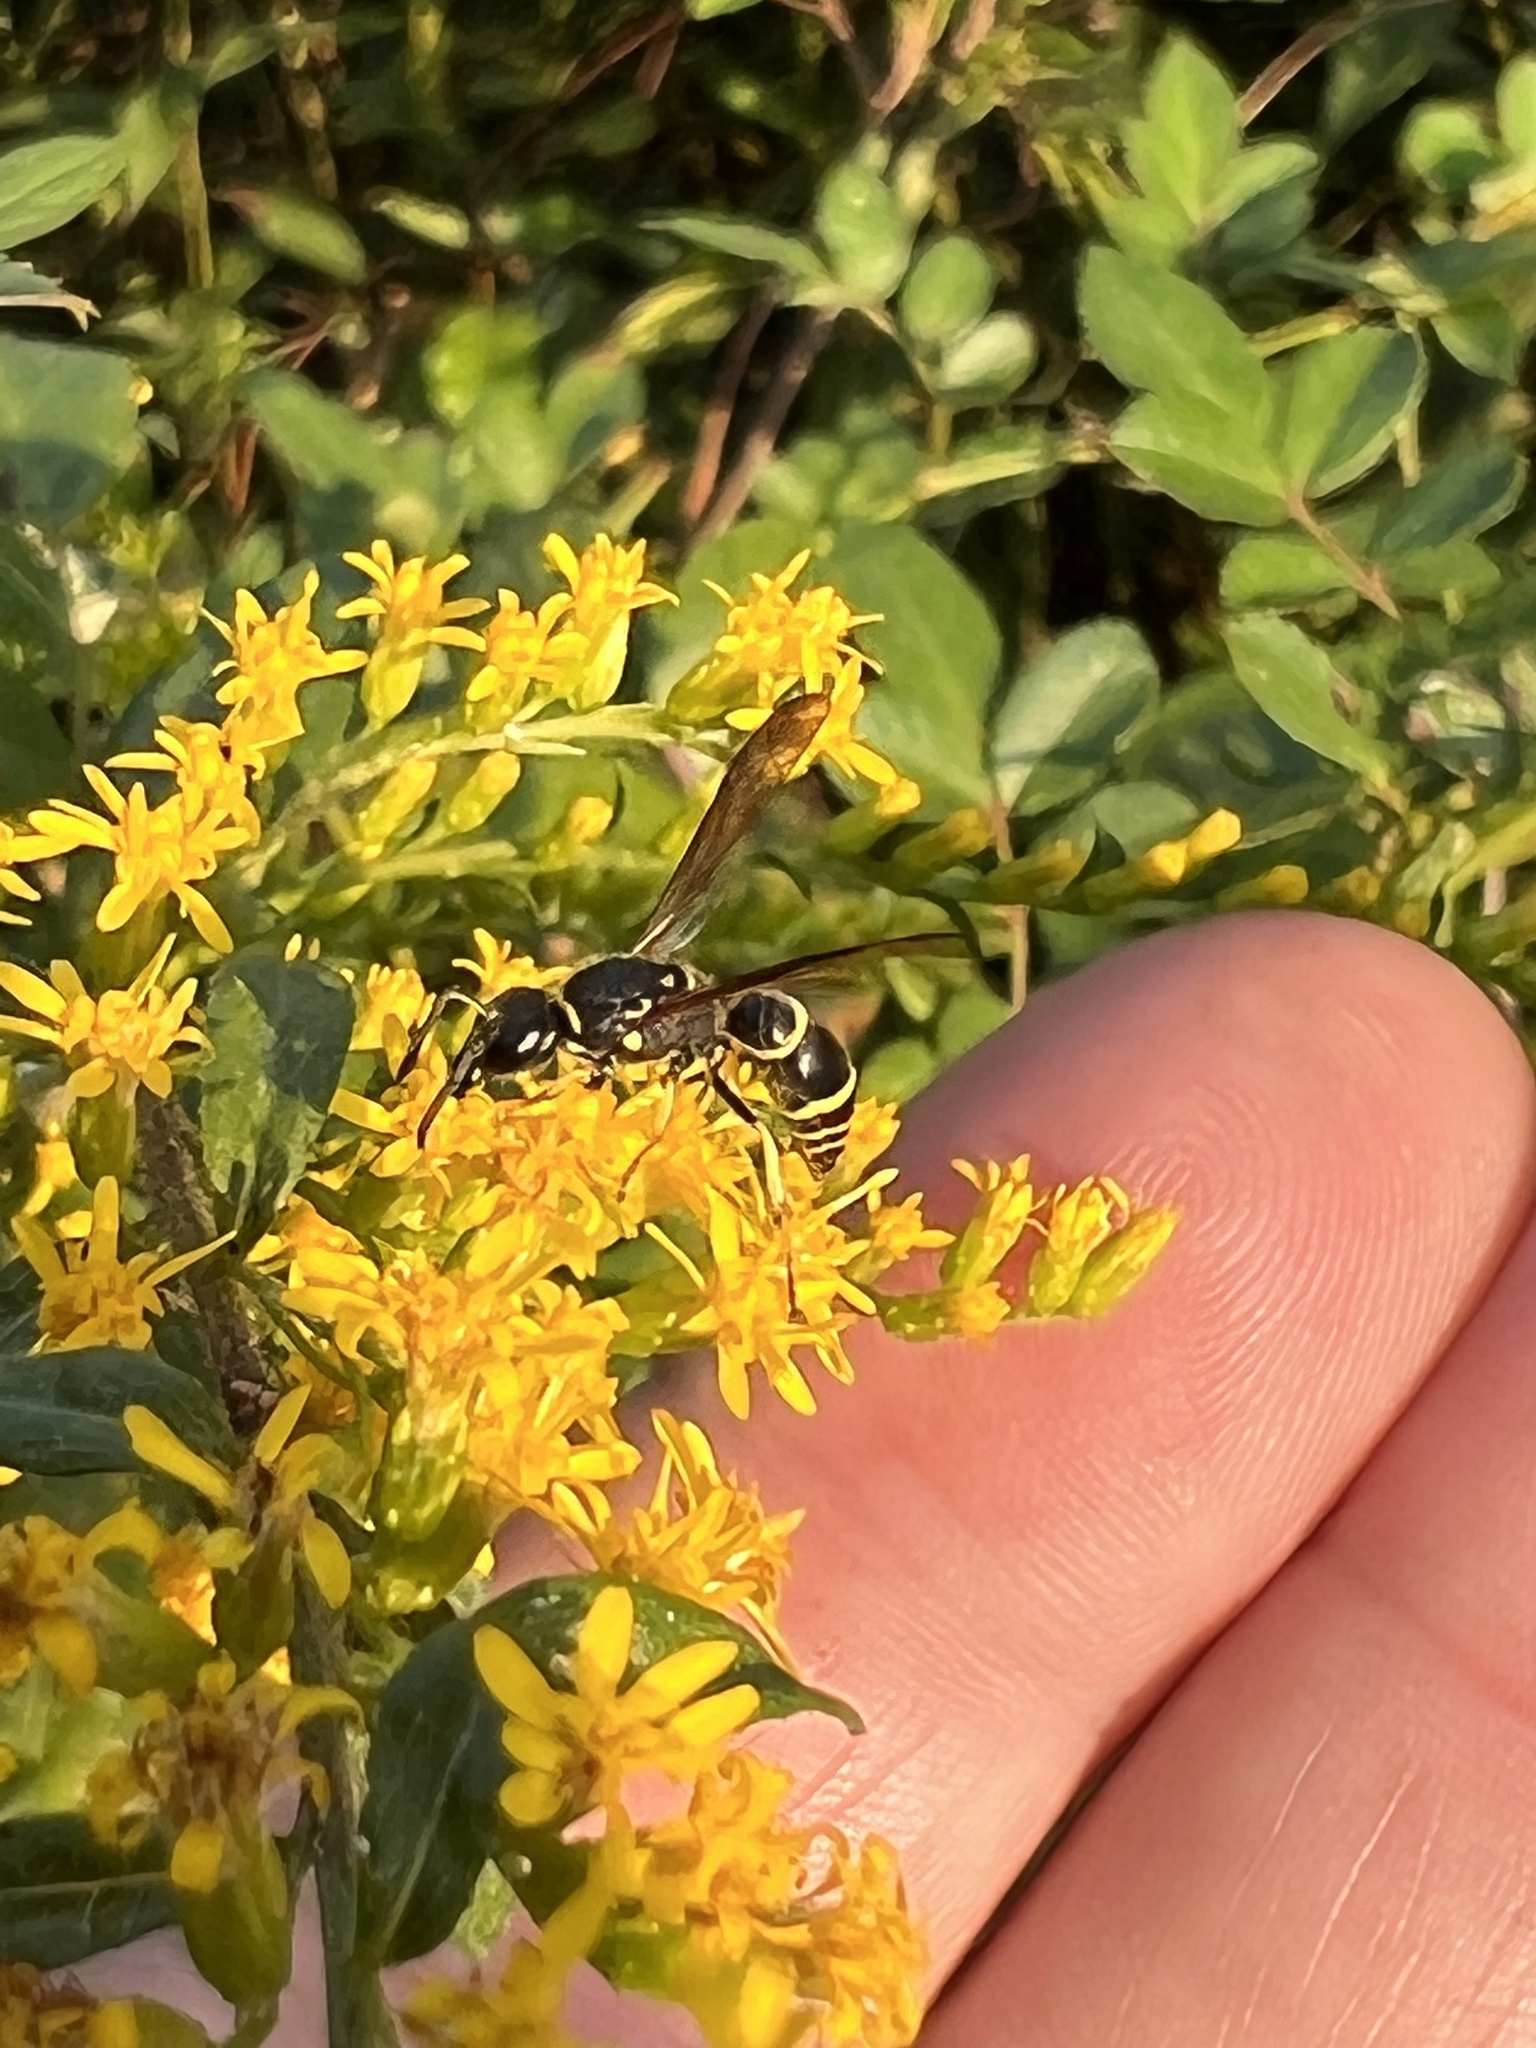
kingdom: Animalia
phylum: Arthropoda
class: Insecta
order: Hymenoptera
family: Vespidae
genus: Ancistrocerus
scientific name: Ancistrocerus adiabatus
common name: Bramble mason wasp
